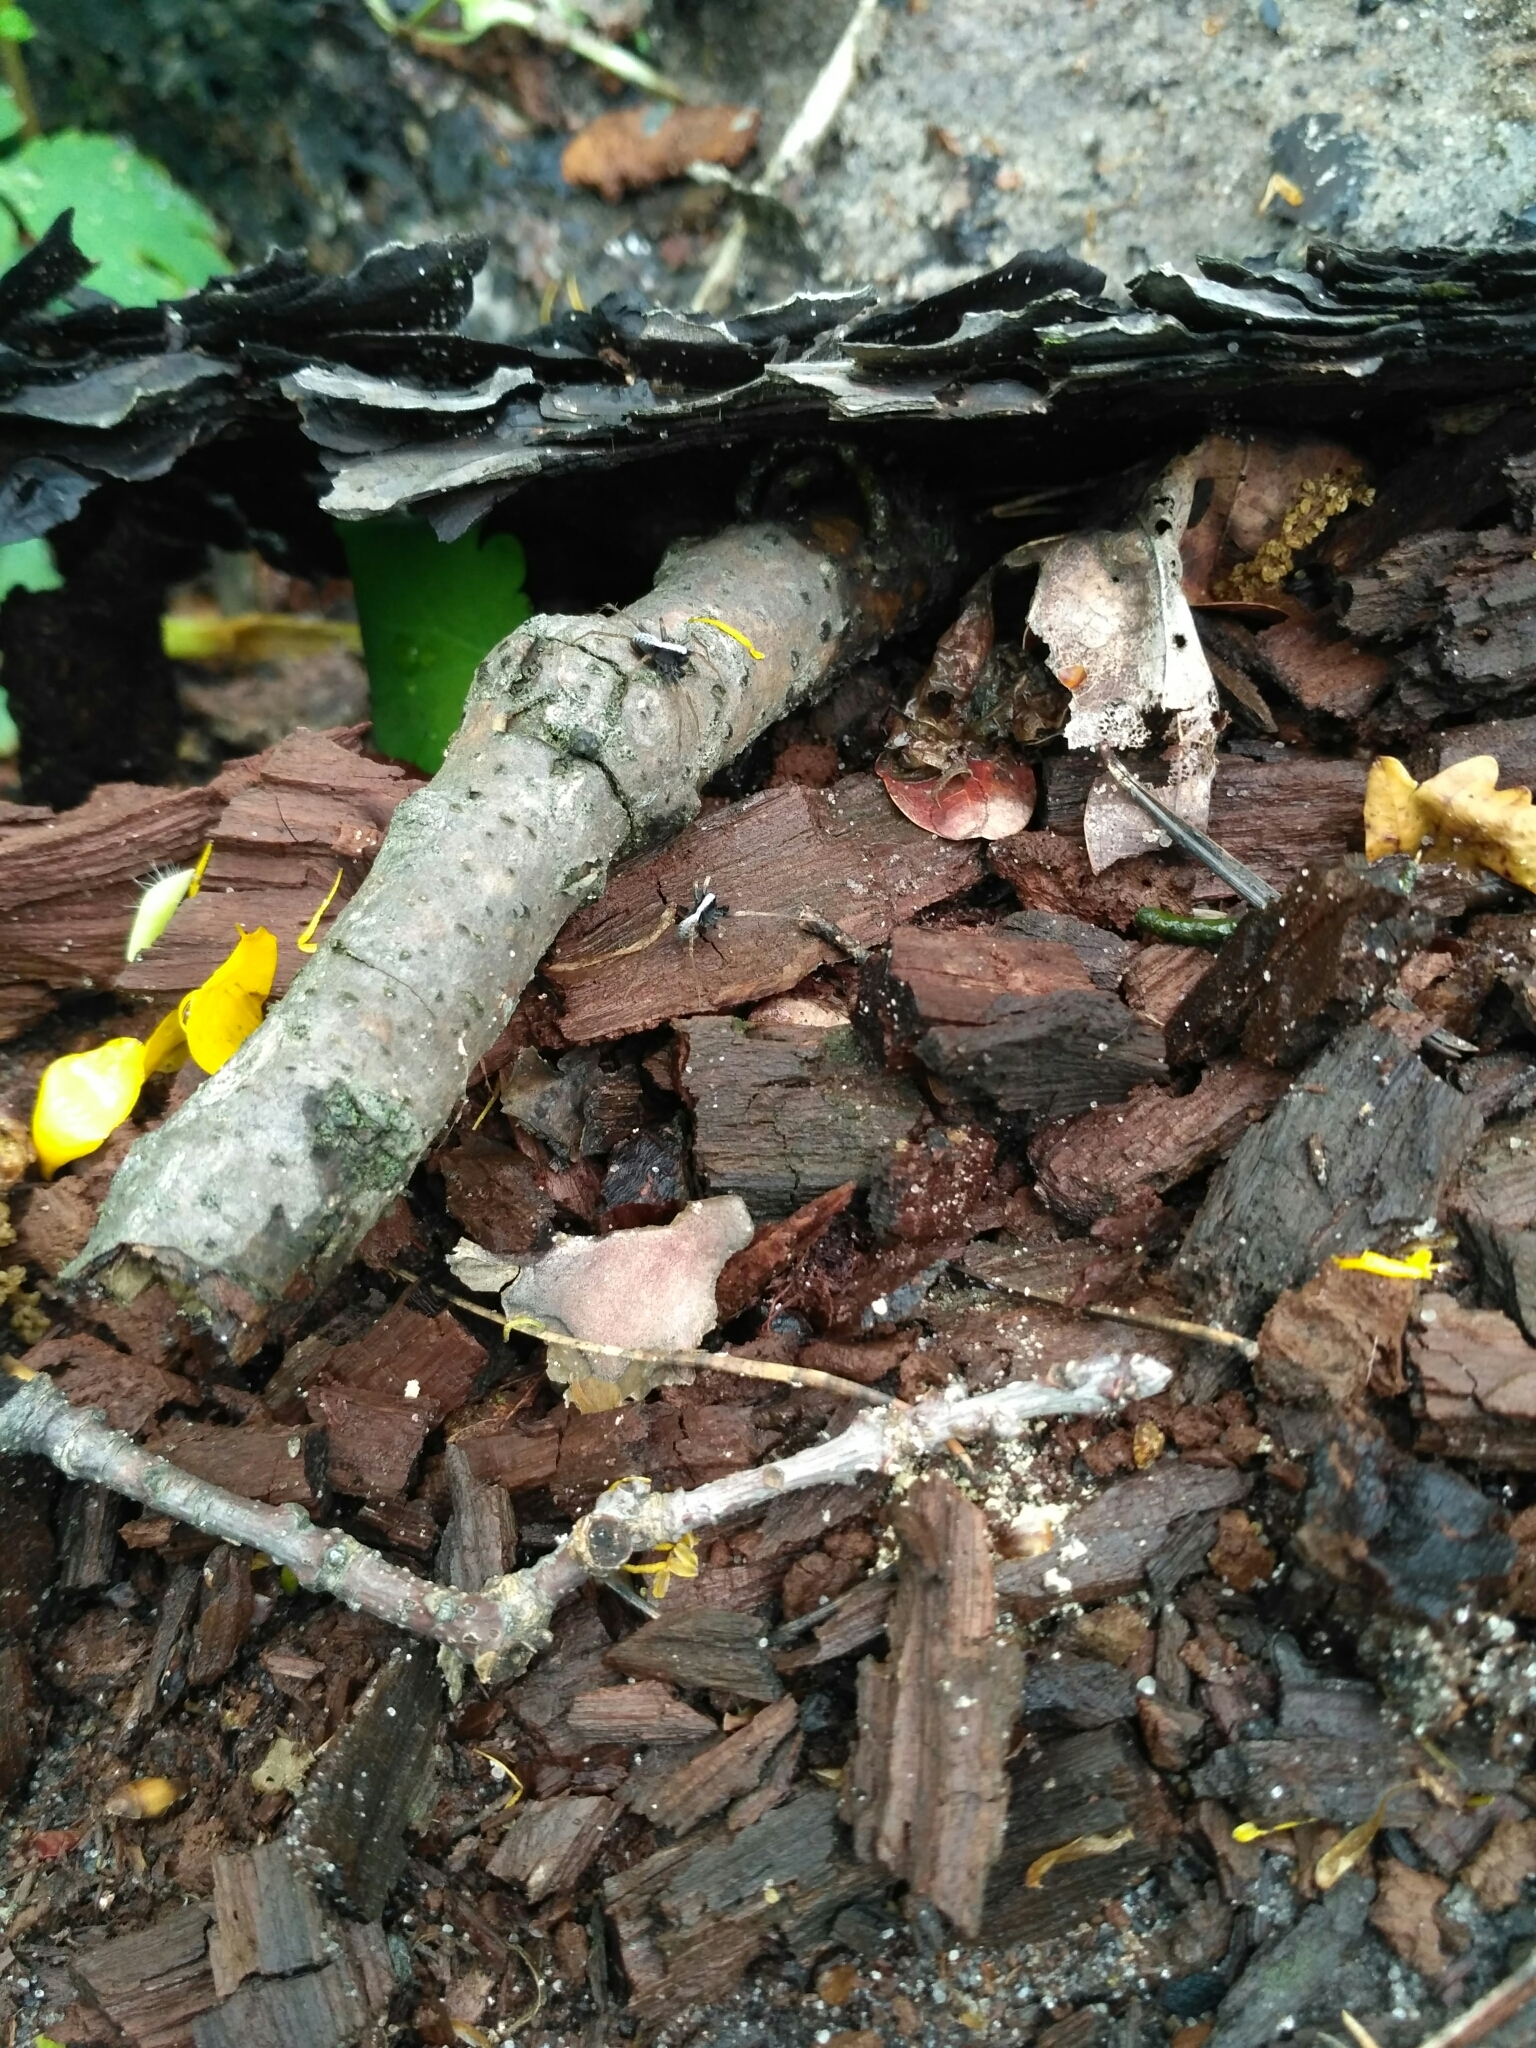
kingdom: Animalia
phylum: Arthropoda
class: Arachnida
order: Araneae
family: Lycosidae
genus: Pardosa
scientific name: Pardosa
